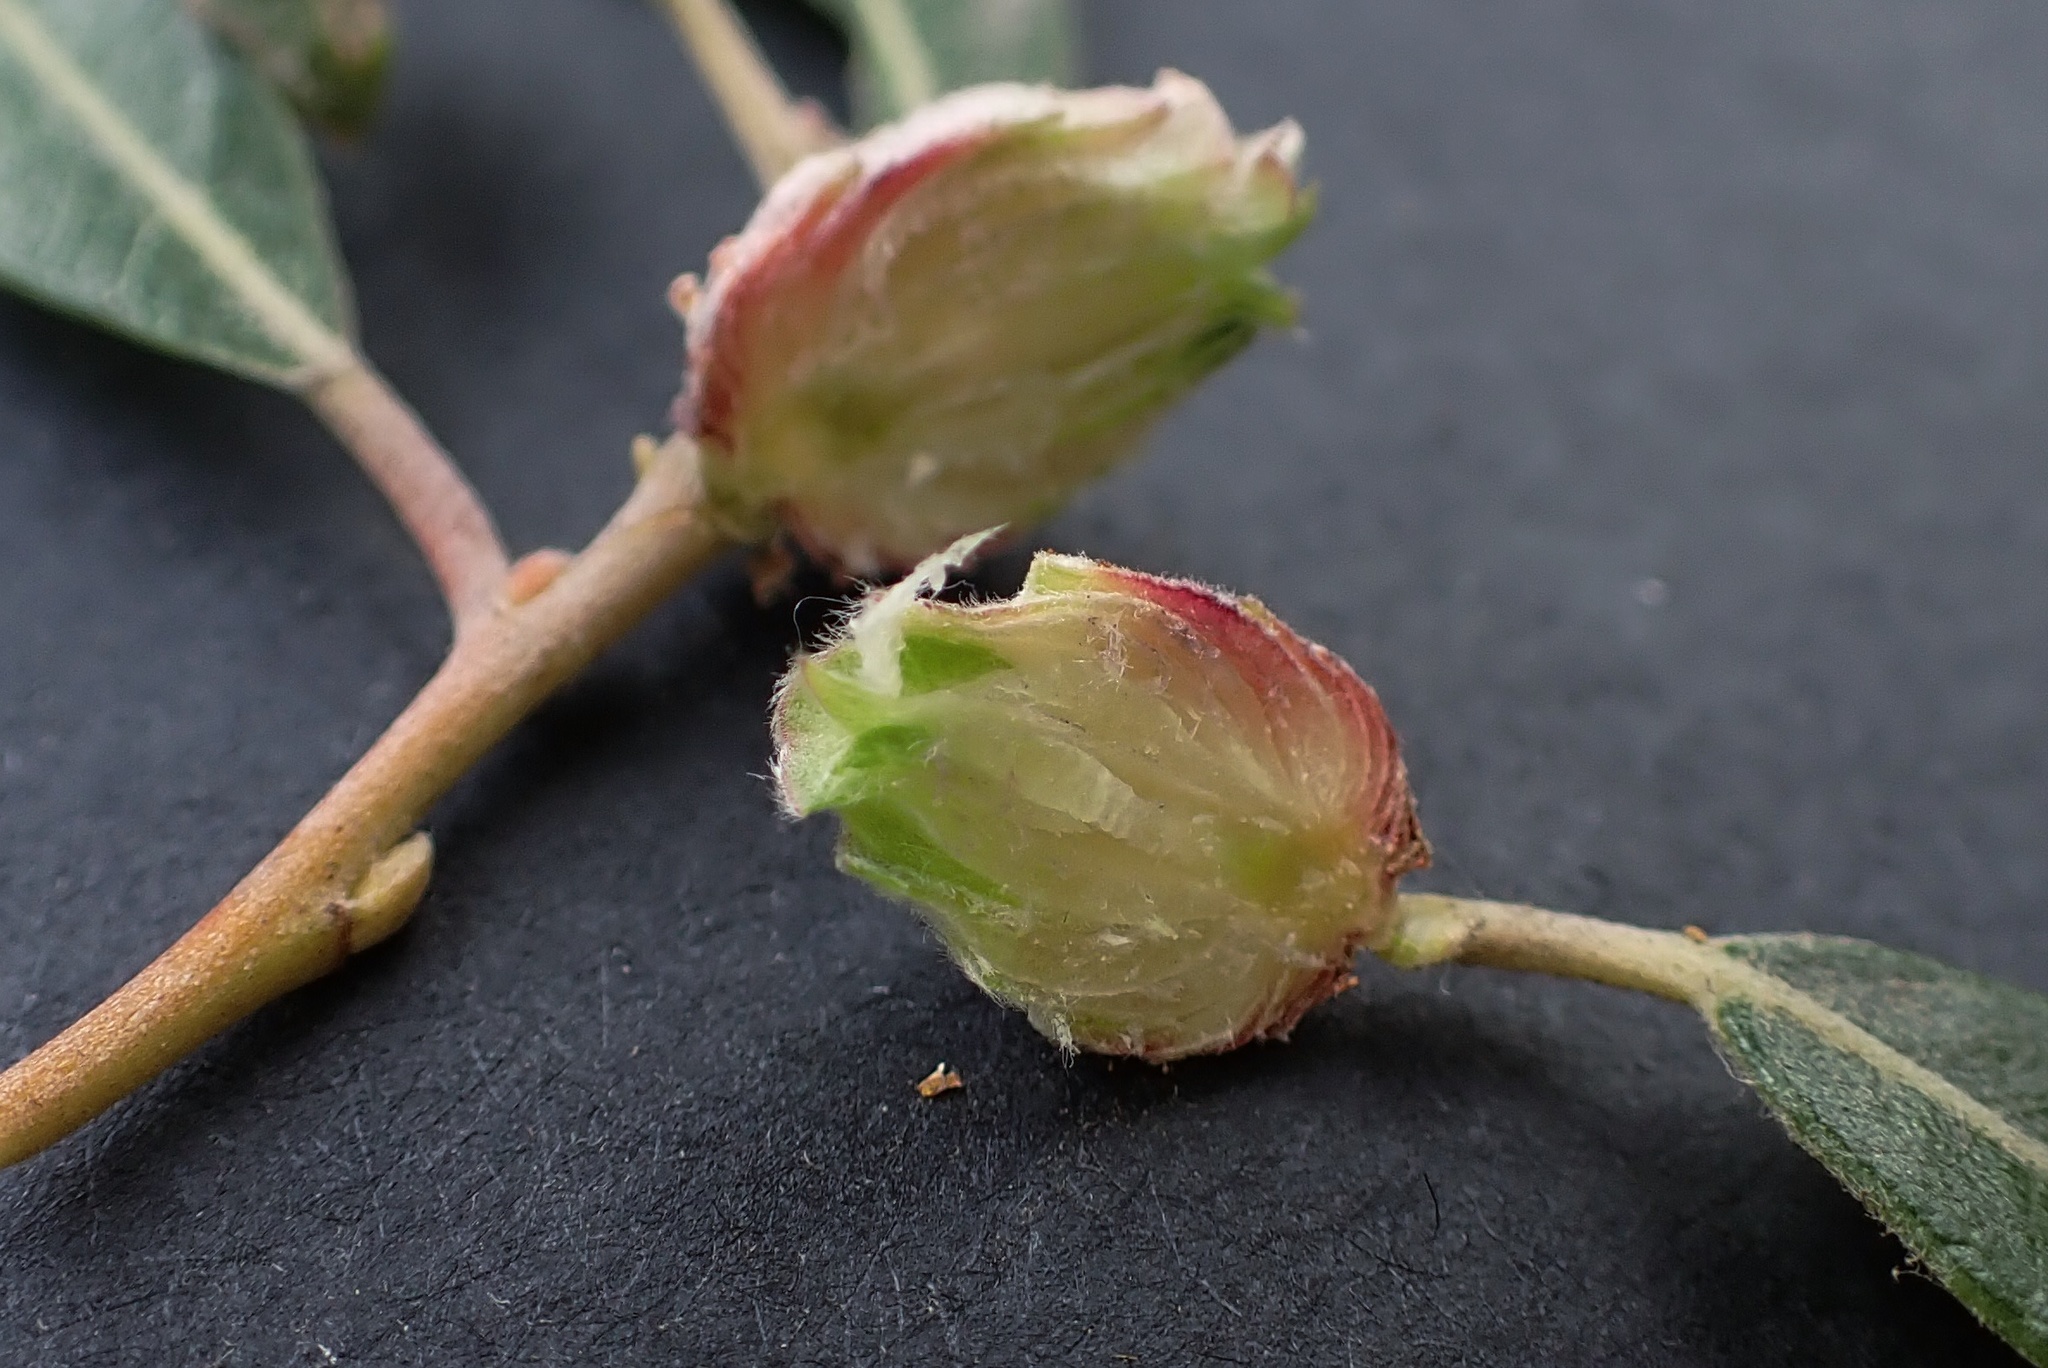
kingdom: Animalia
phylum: Arthropoda
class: Insecta
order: Diptera
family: Cecidomyiidae
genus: Rabdophaga
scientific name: Rabdophaga strobiloides
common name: Willow pinecone gall midge
